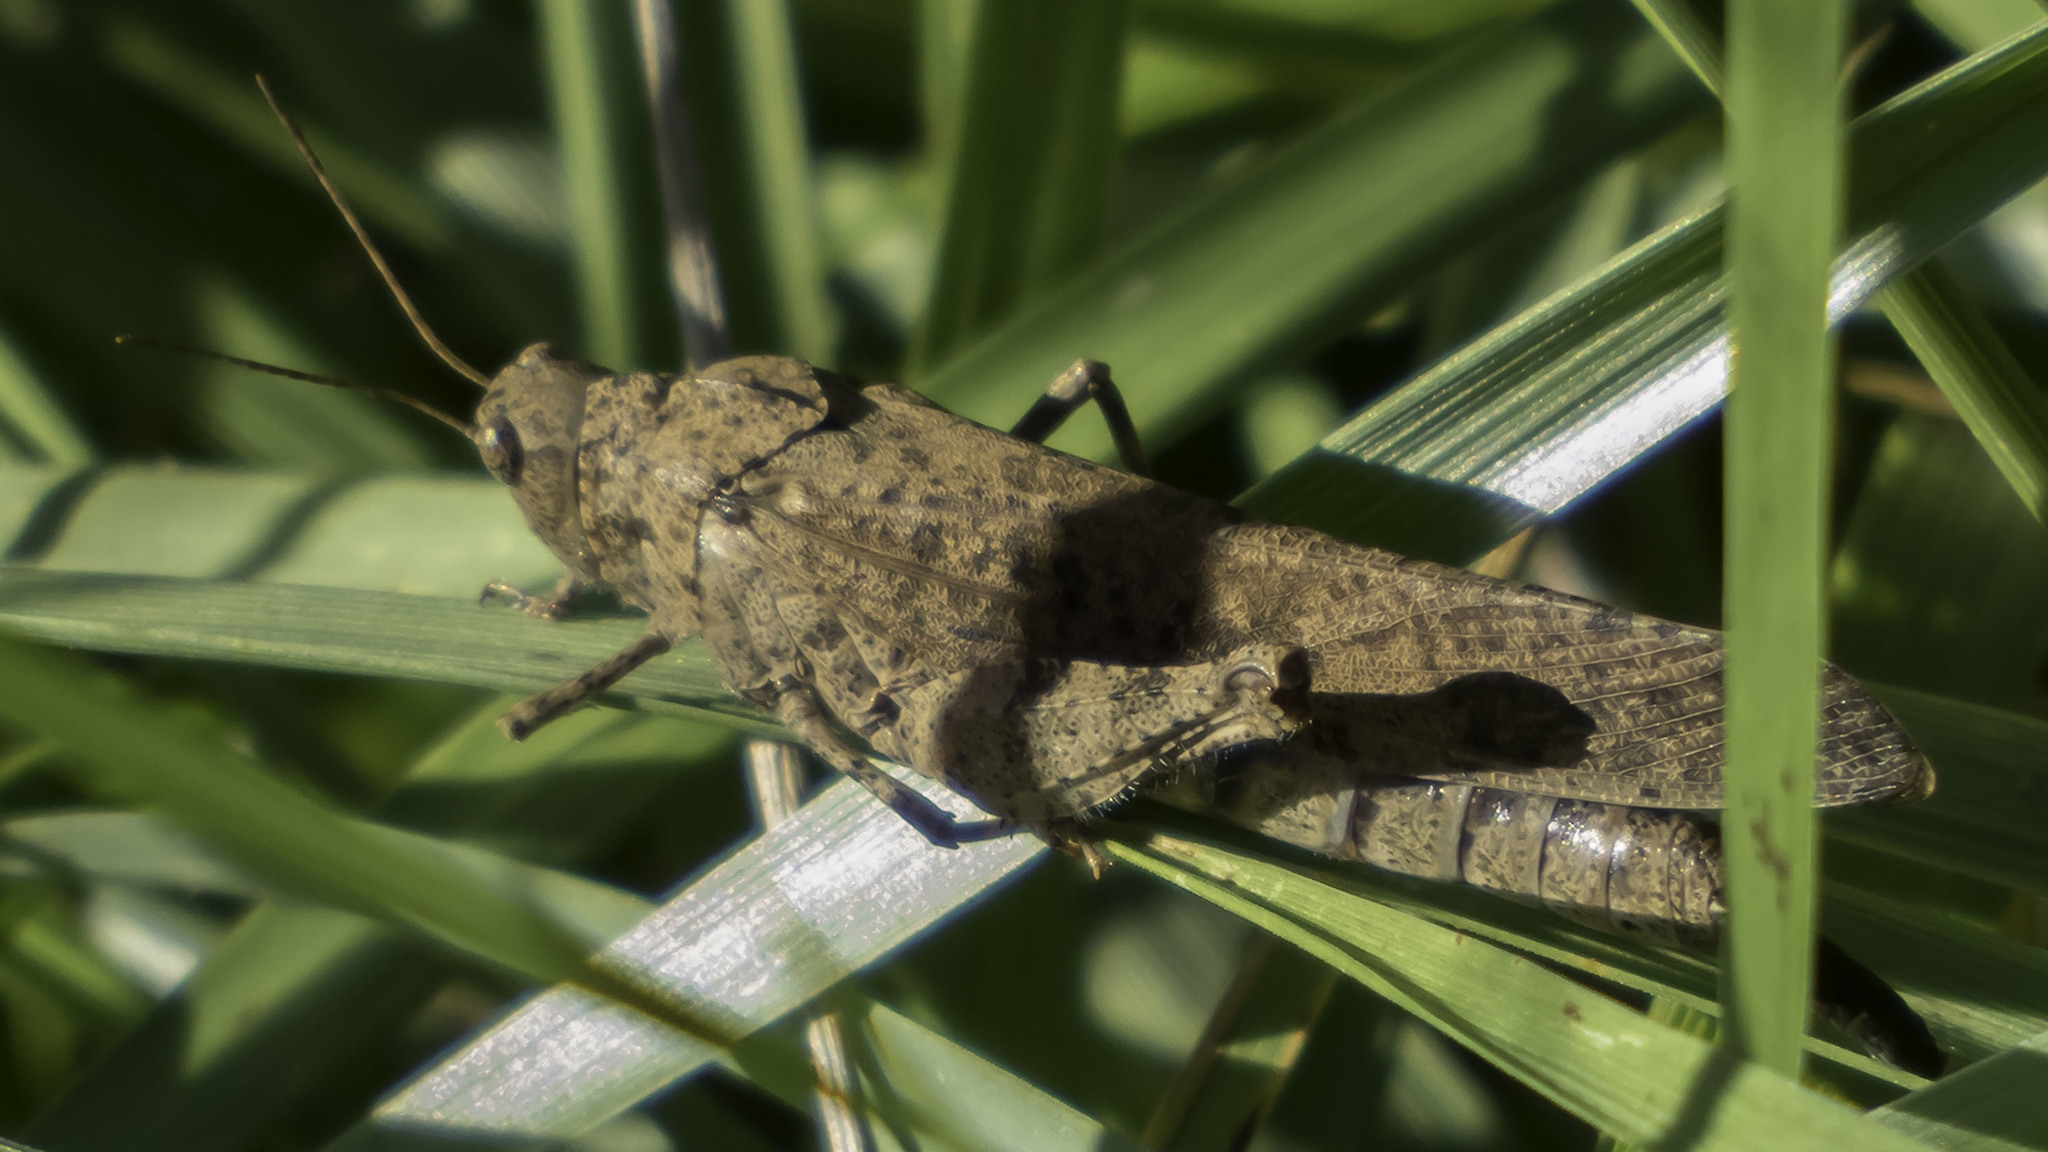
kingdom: Animalia
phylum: Arthropoda
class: Insecta
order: Orthoptera
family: Acrididae
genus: Dissosteira
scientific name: Dissosteira carolina
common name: Carolina grasshopper
